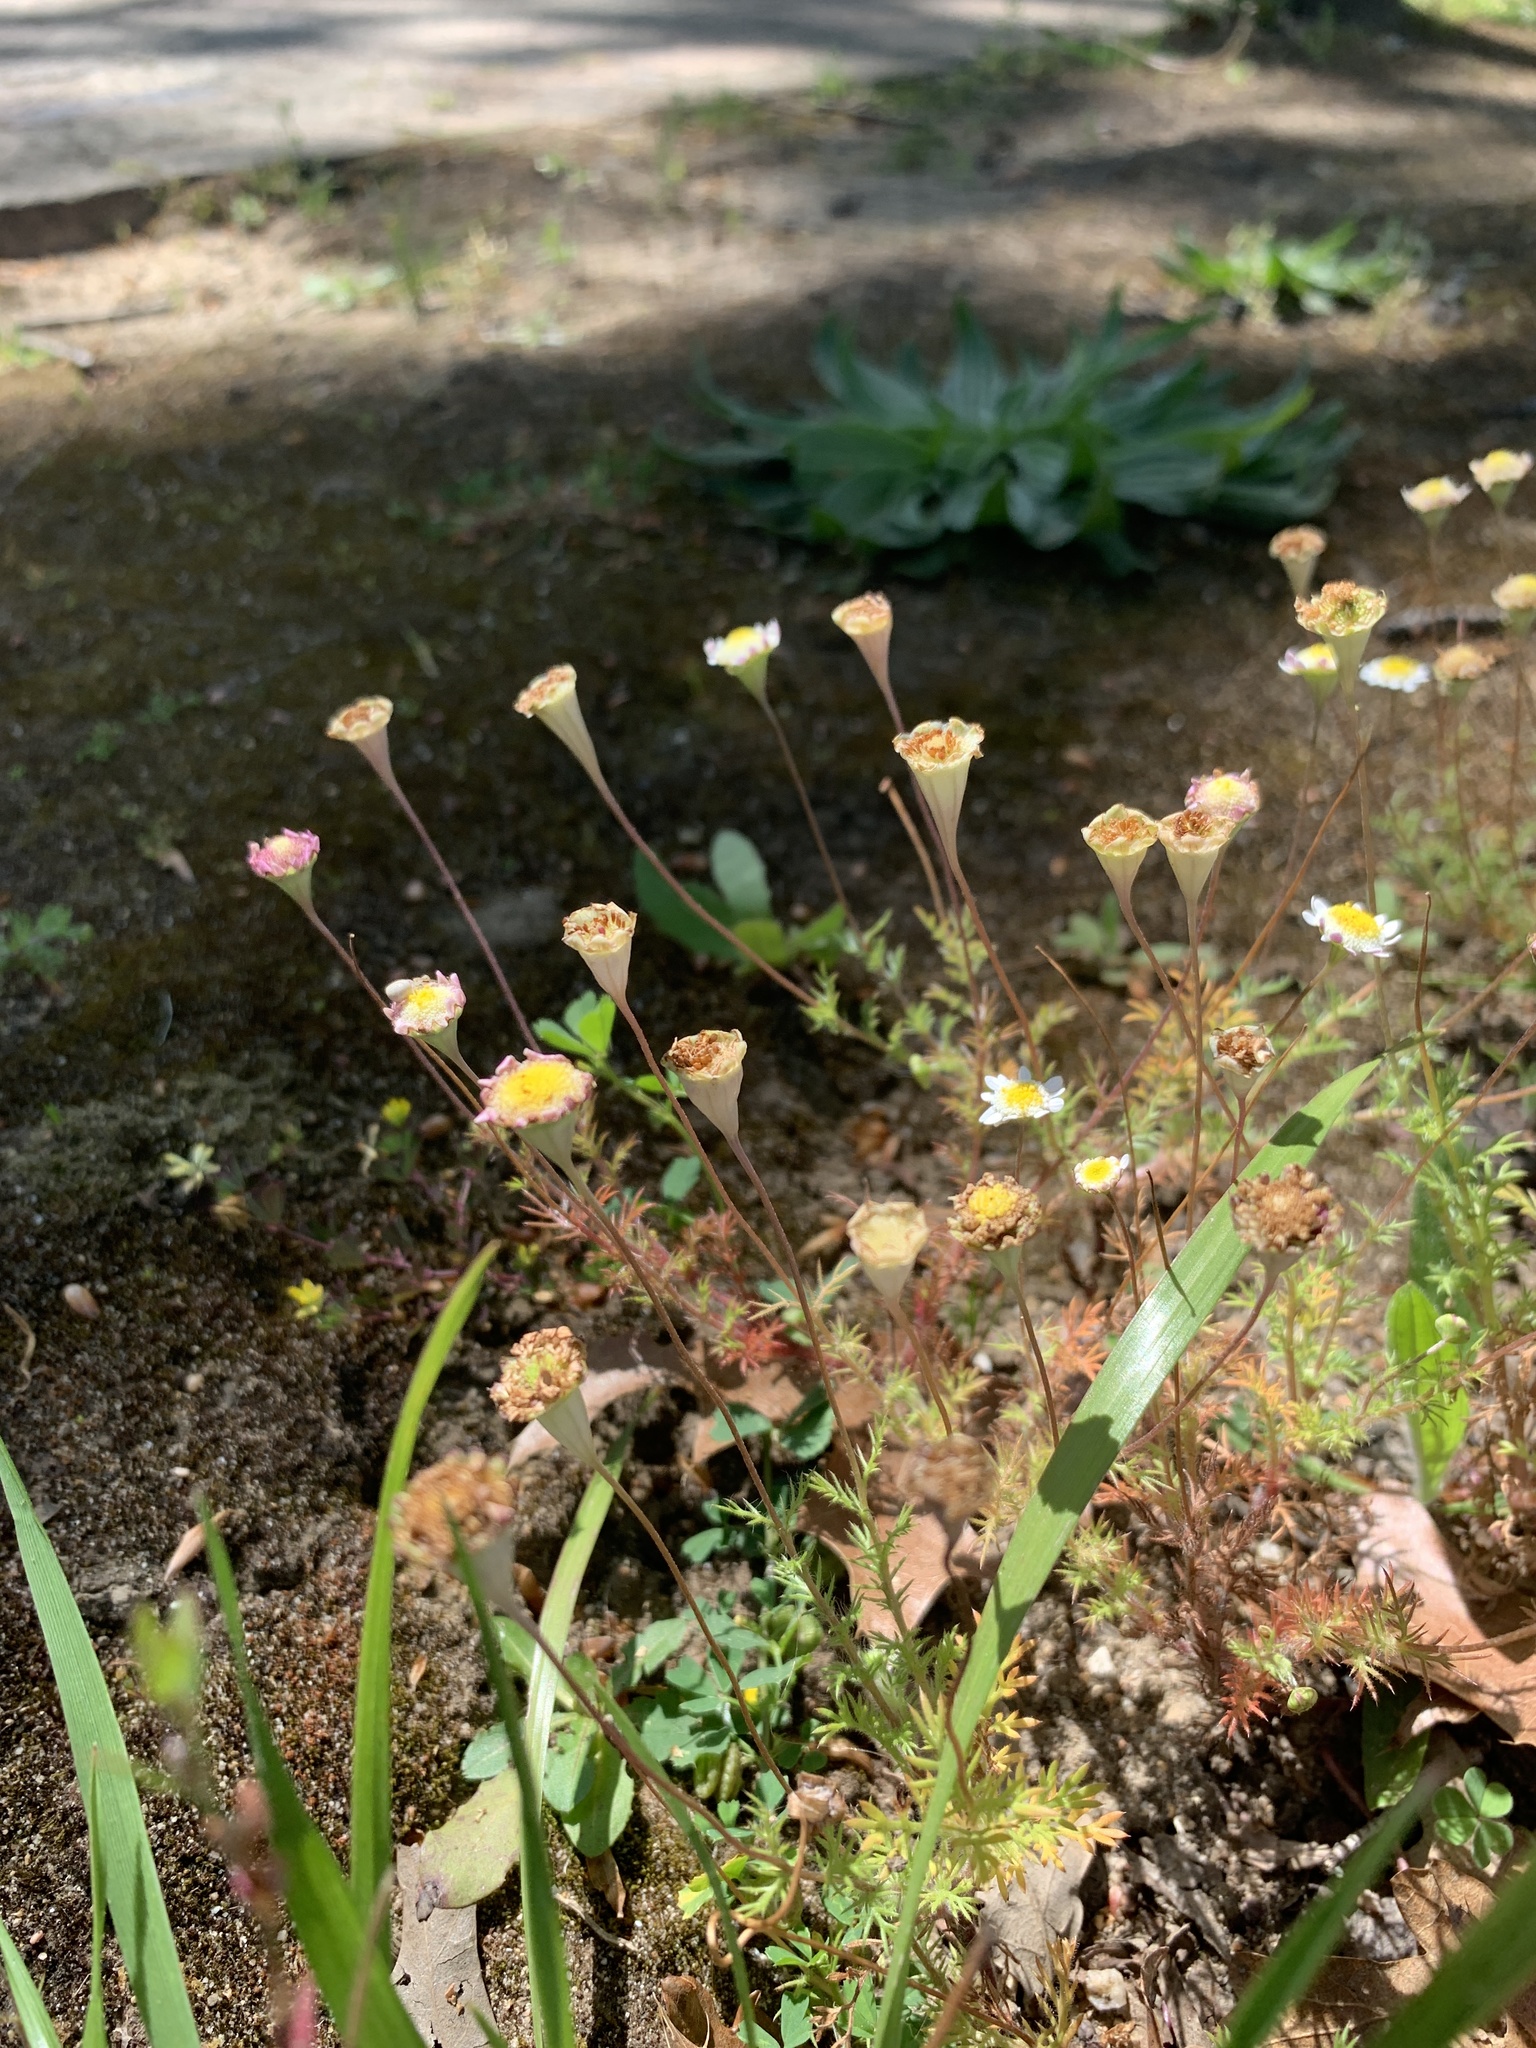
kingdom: Plantae
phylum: Tracheophyta
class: Magnoliopsida
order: Asterales
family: Asteraceae
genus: Cotula
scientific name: Cotula turbinata
